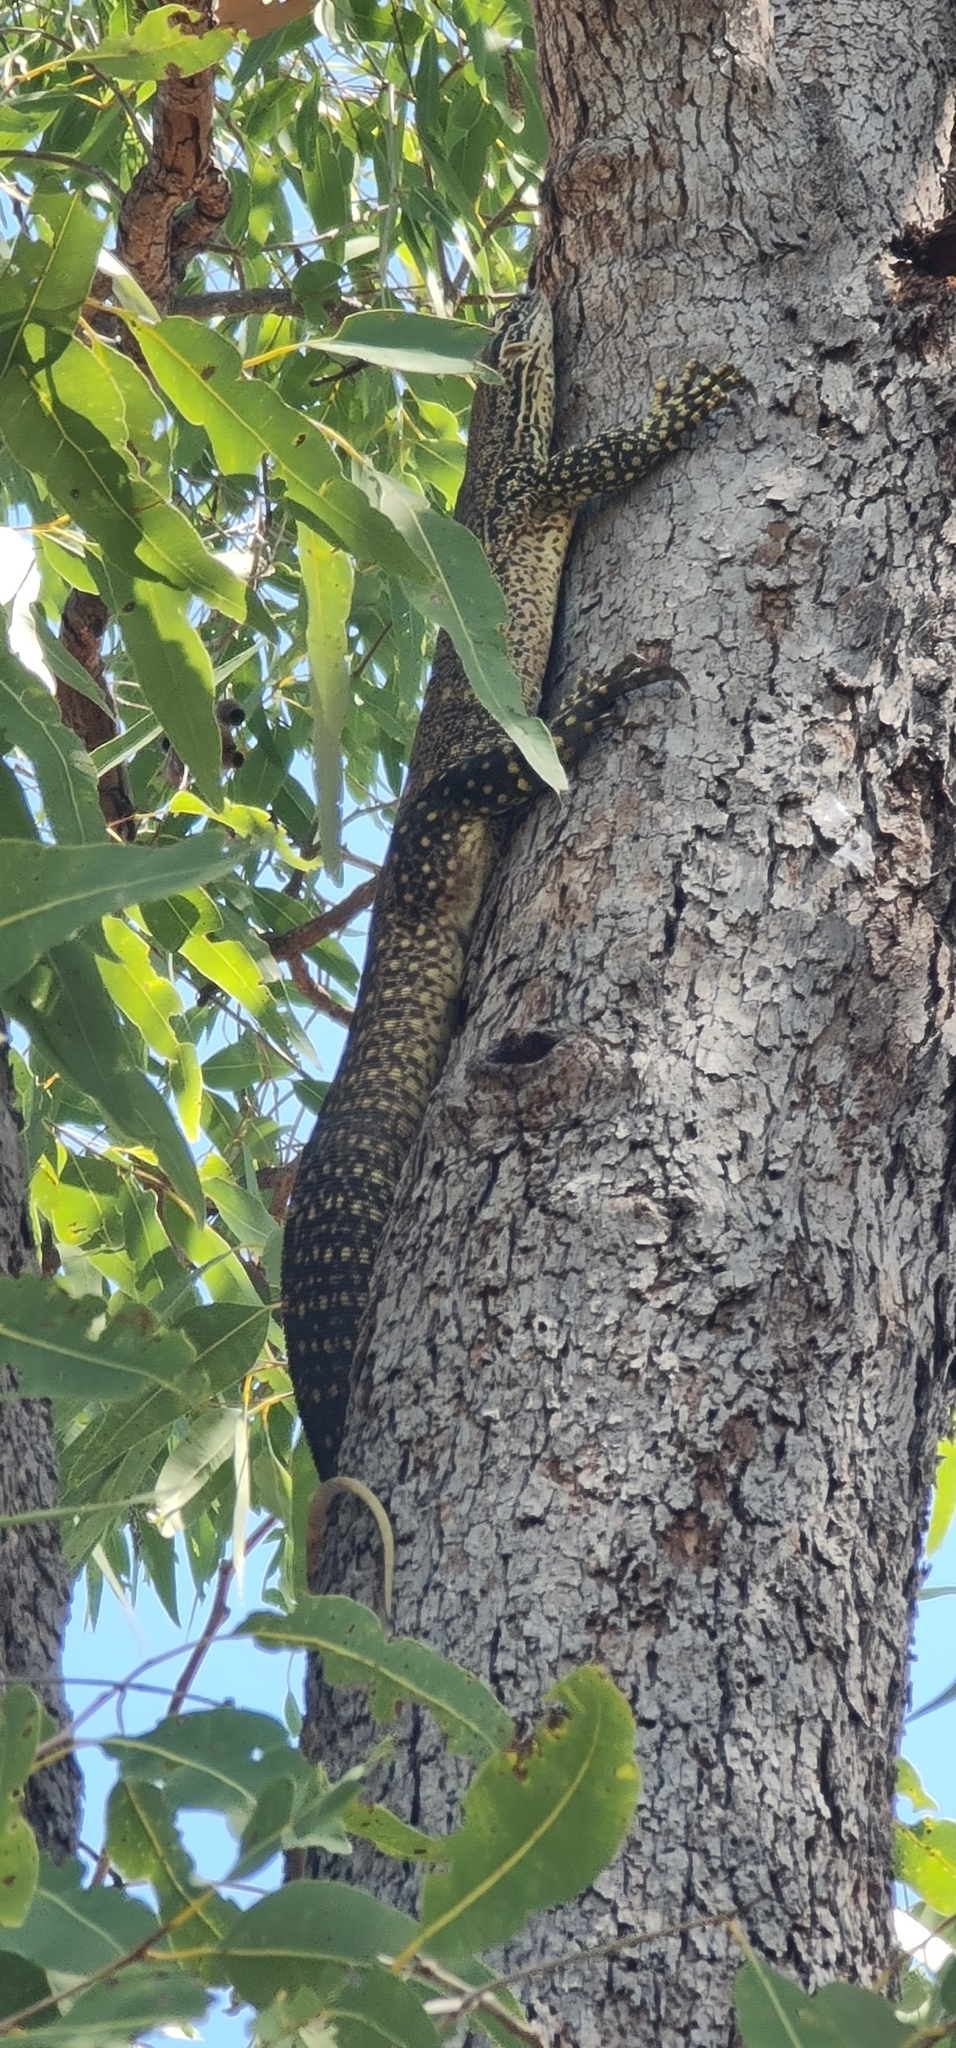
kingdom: Animalia
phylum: Chordata
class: Squamata
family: Varanidae
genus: Varanus
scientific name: Varanus gouldii
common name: Gould's goanna
